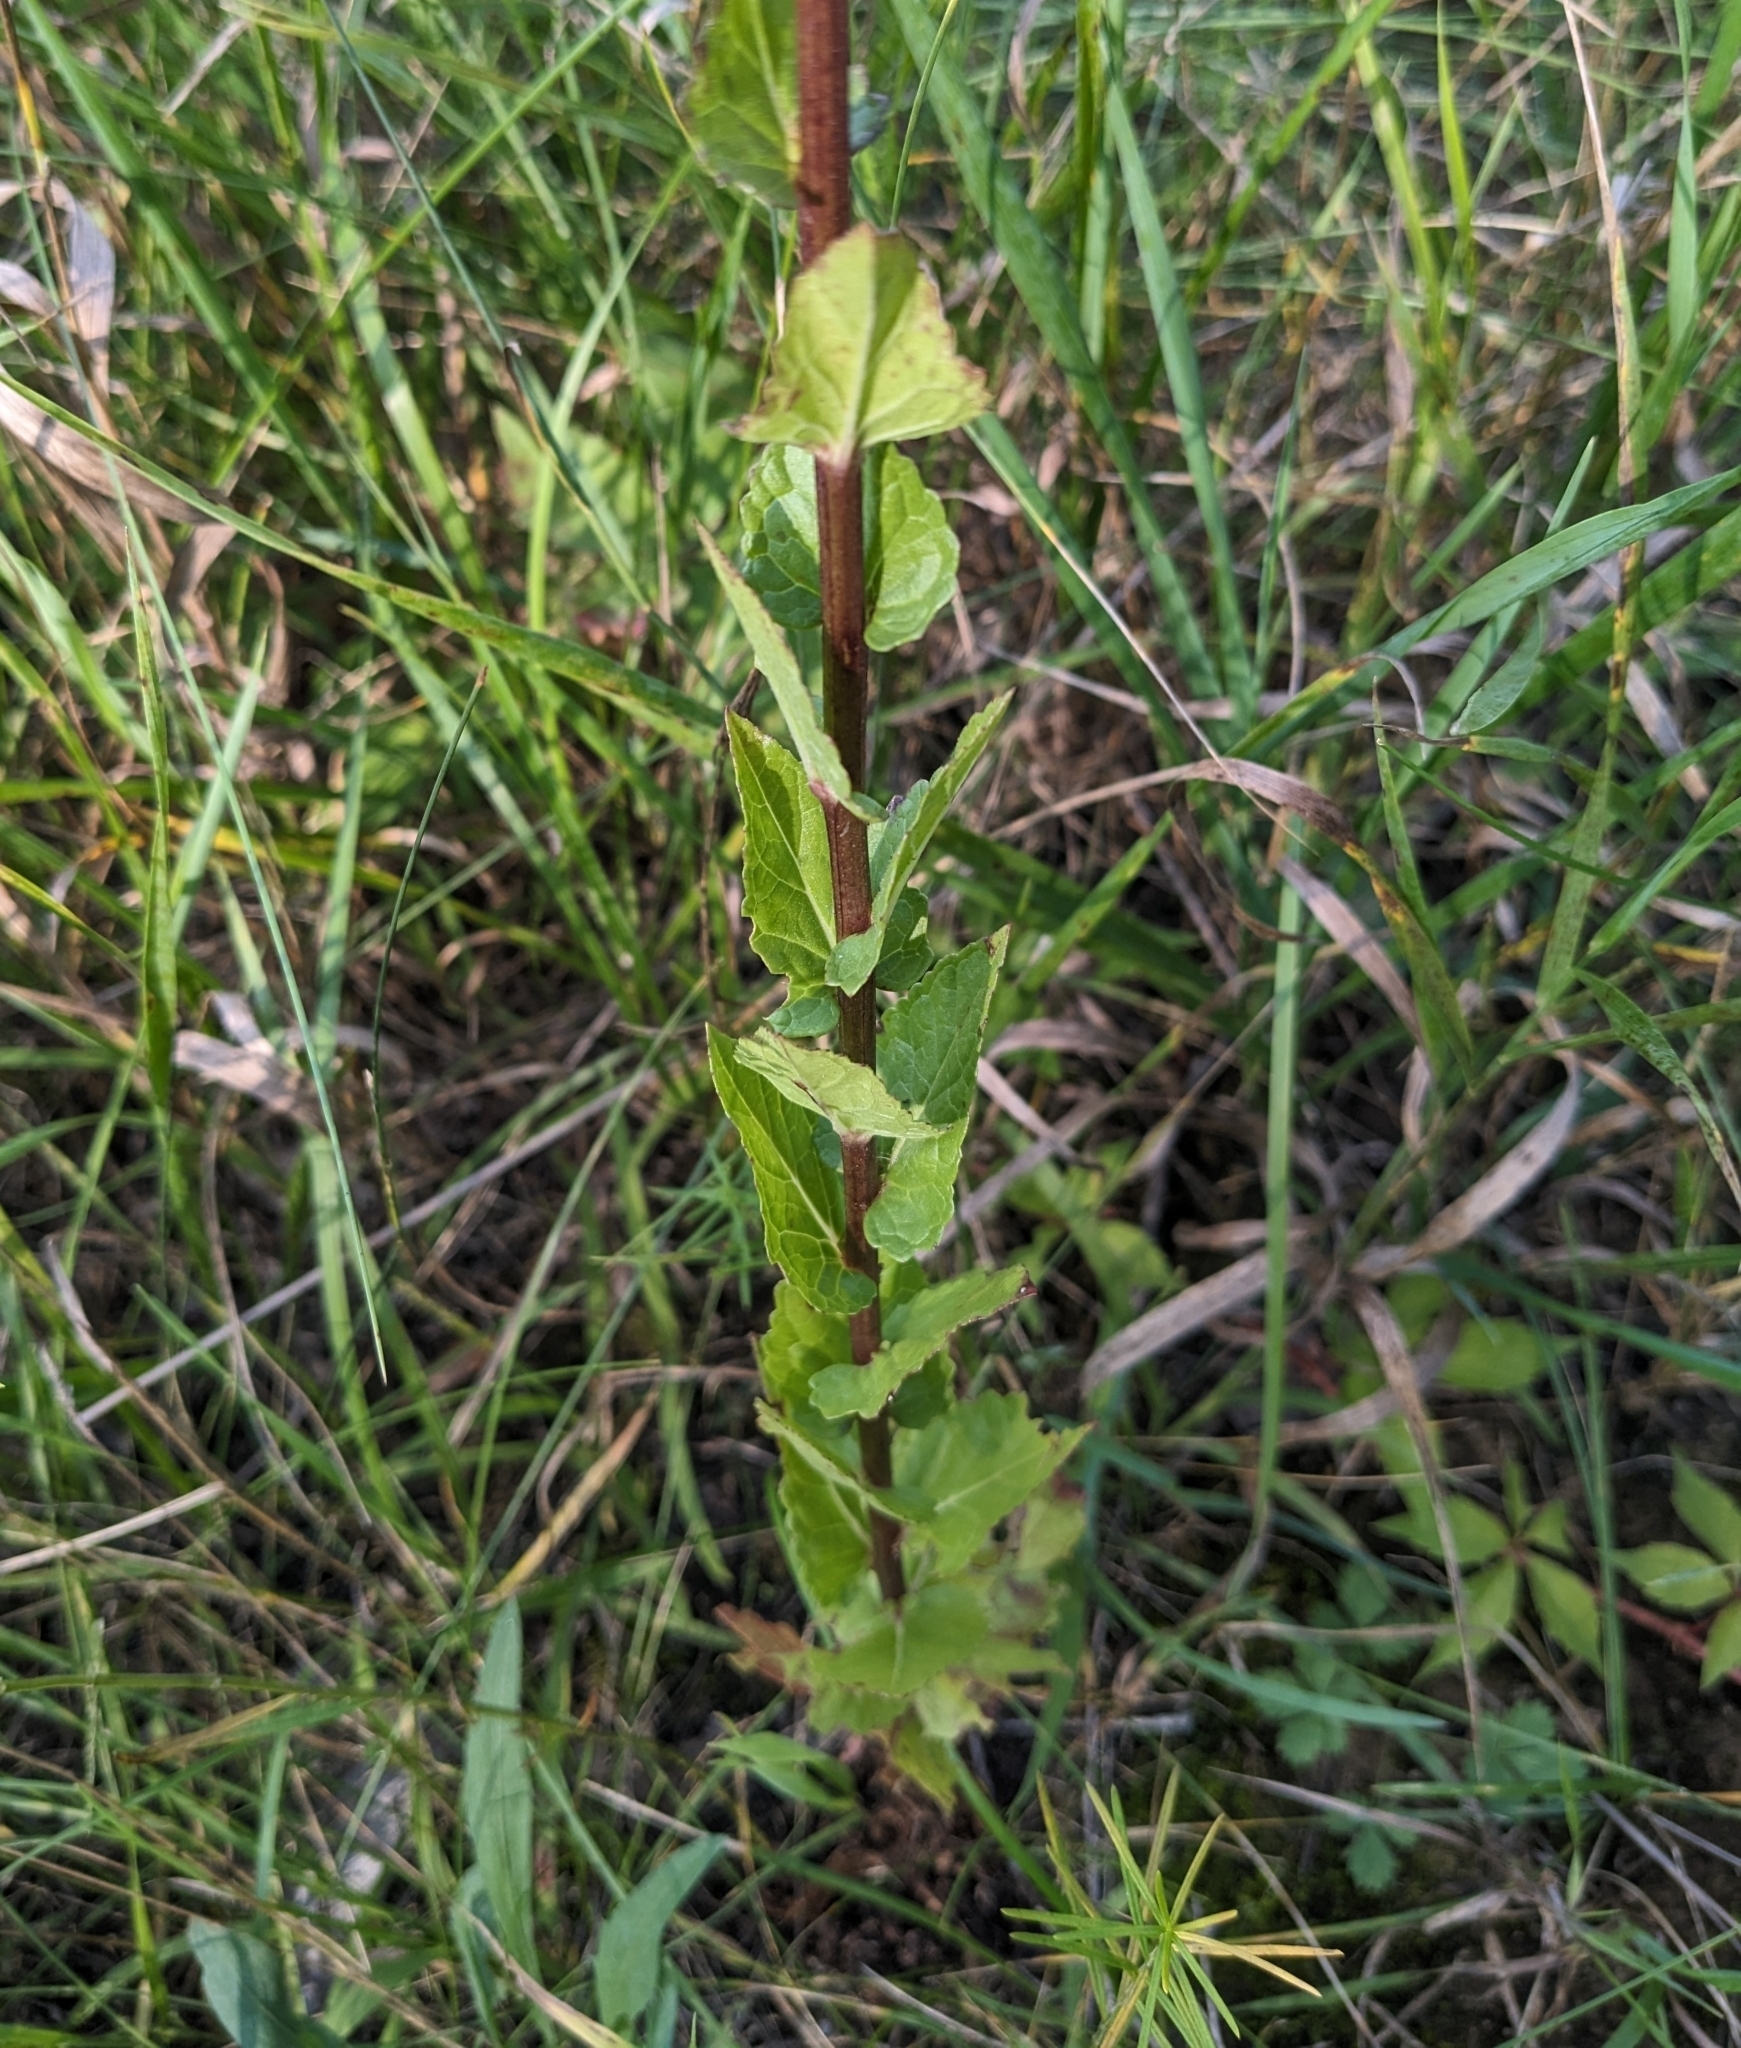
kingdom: Plantae
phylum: Tracheophyta
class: Magnoliopsida
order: Lamiales
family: Scrophulariaceae
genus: Verbascum
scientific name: Verbascum blattaria
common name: Moth mullein
